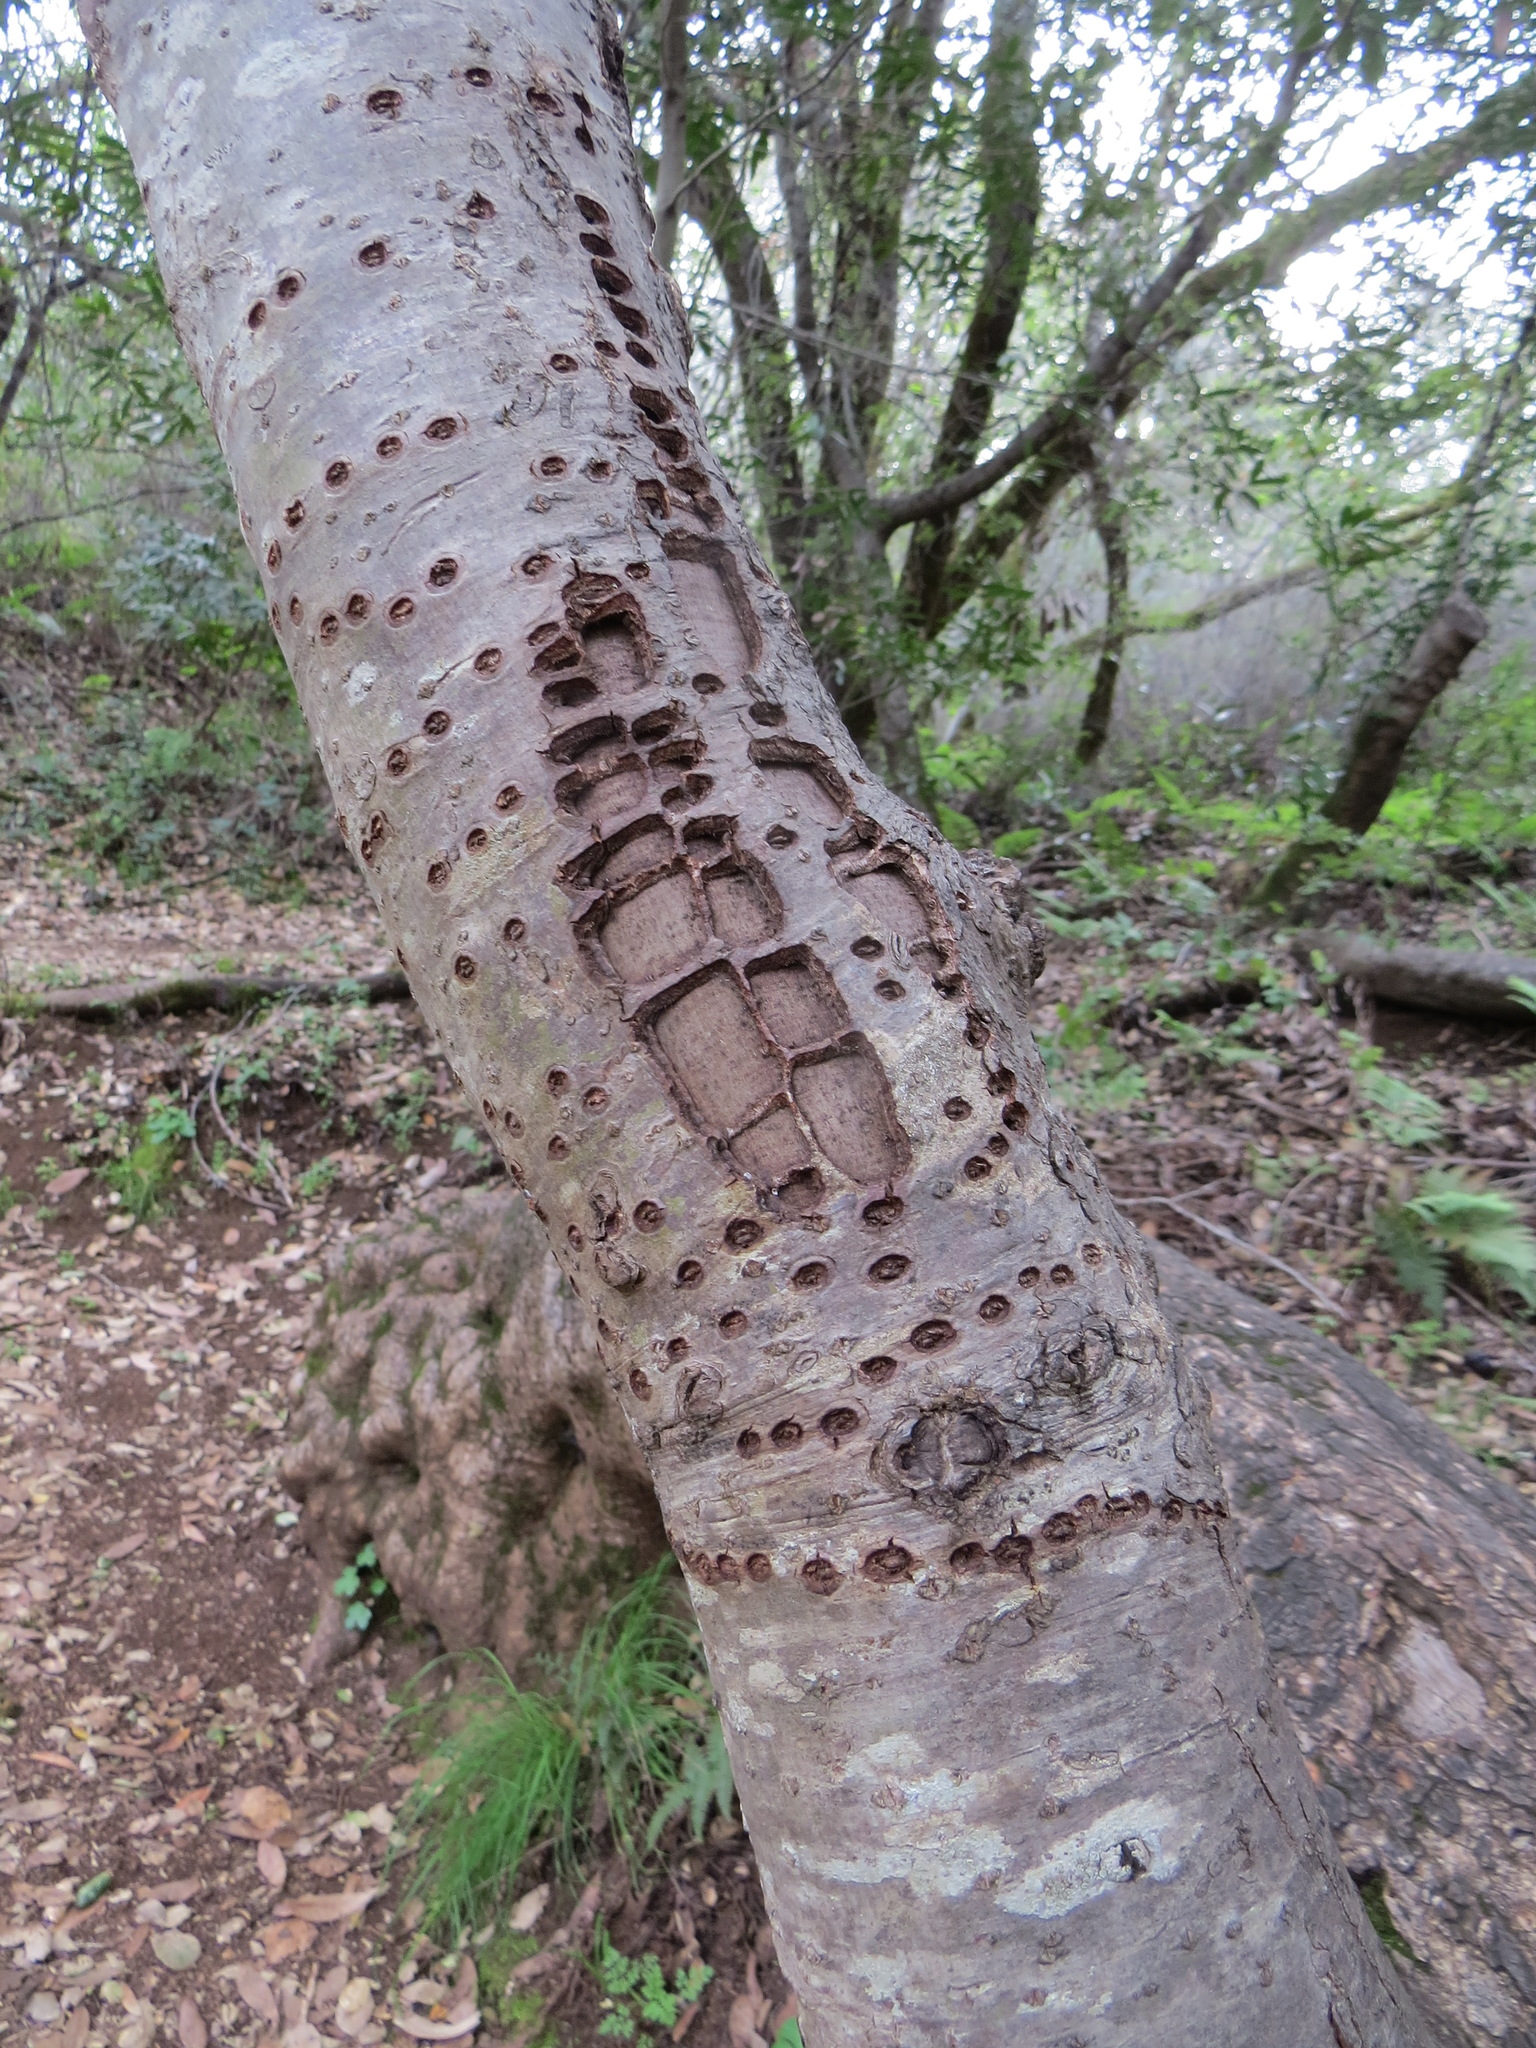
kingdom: Animalia
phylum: Chordata
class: Aves
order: Piciformes
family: Picidae
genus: Sphyrapicus
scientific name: Sphyrapicus
